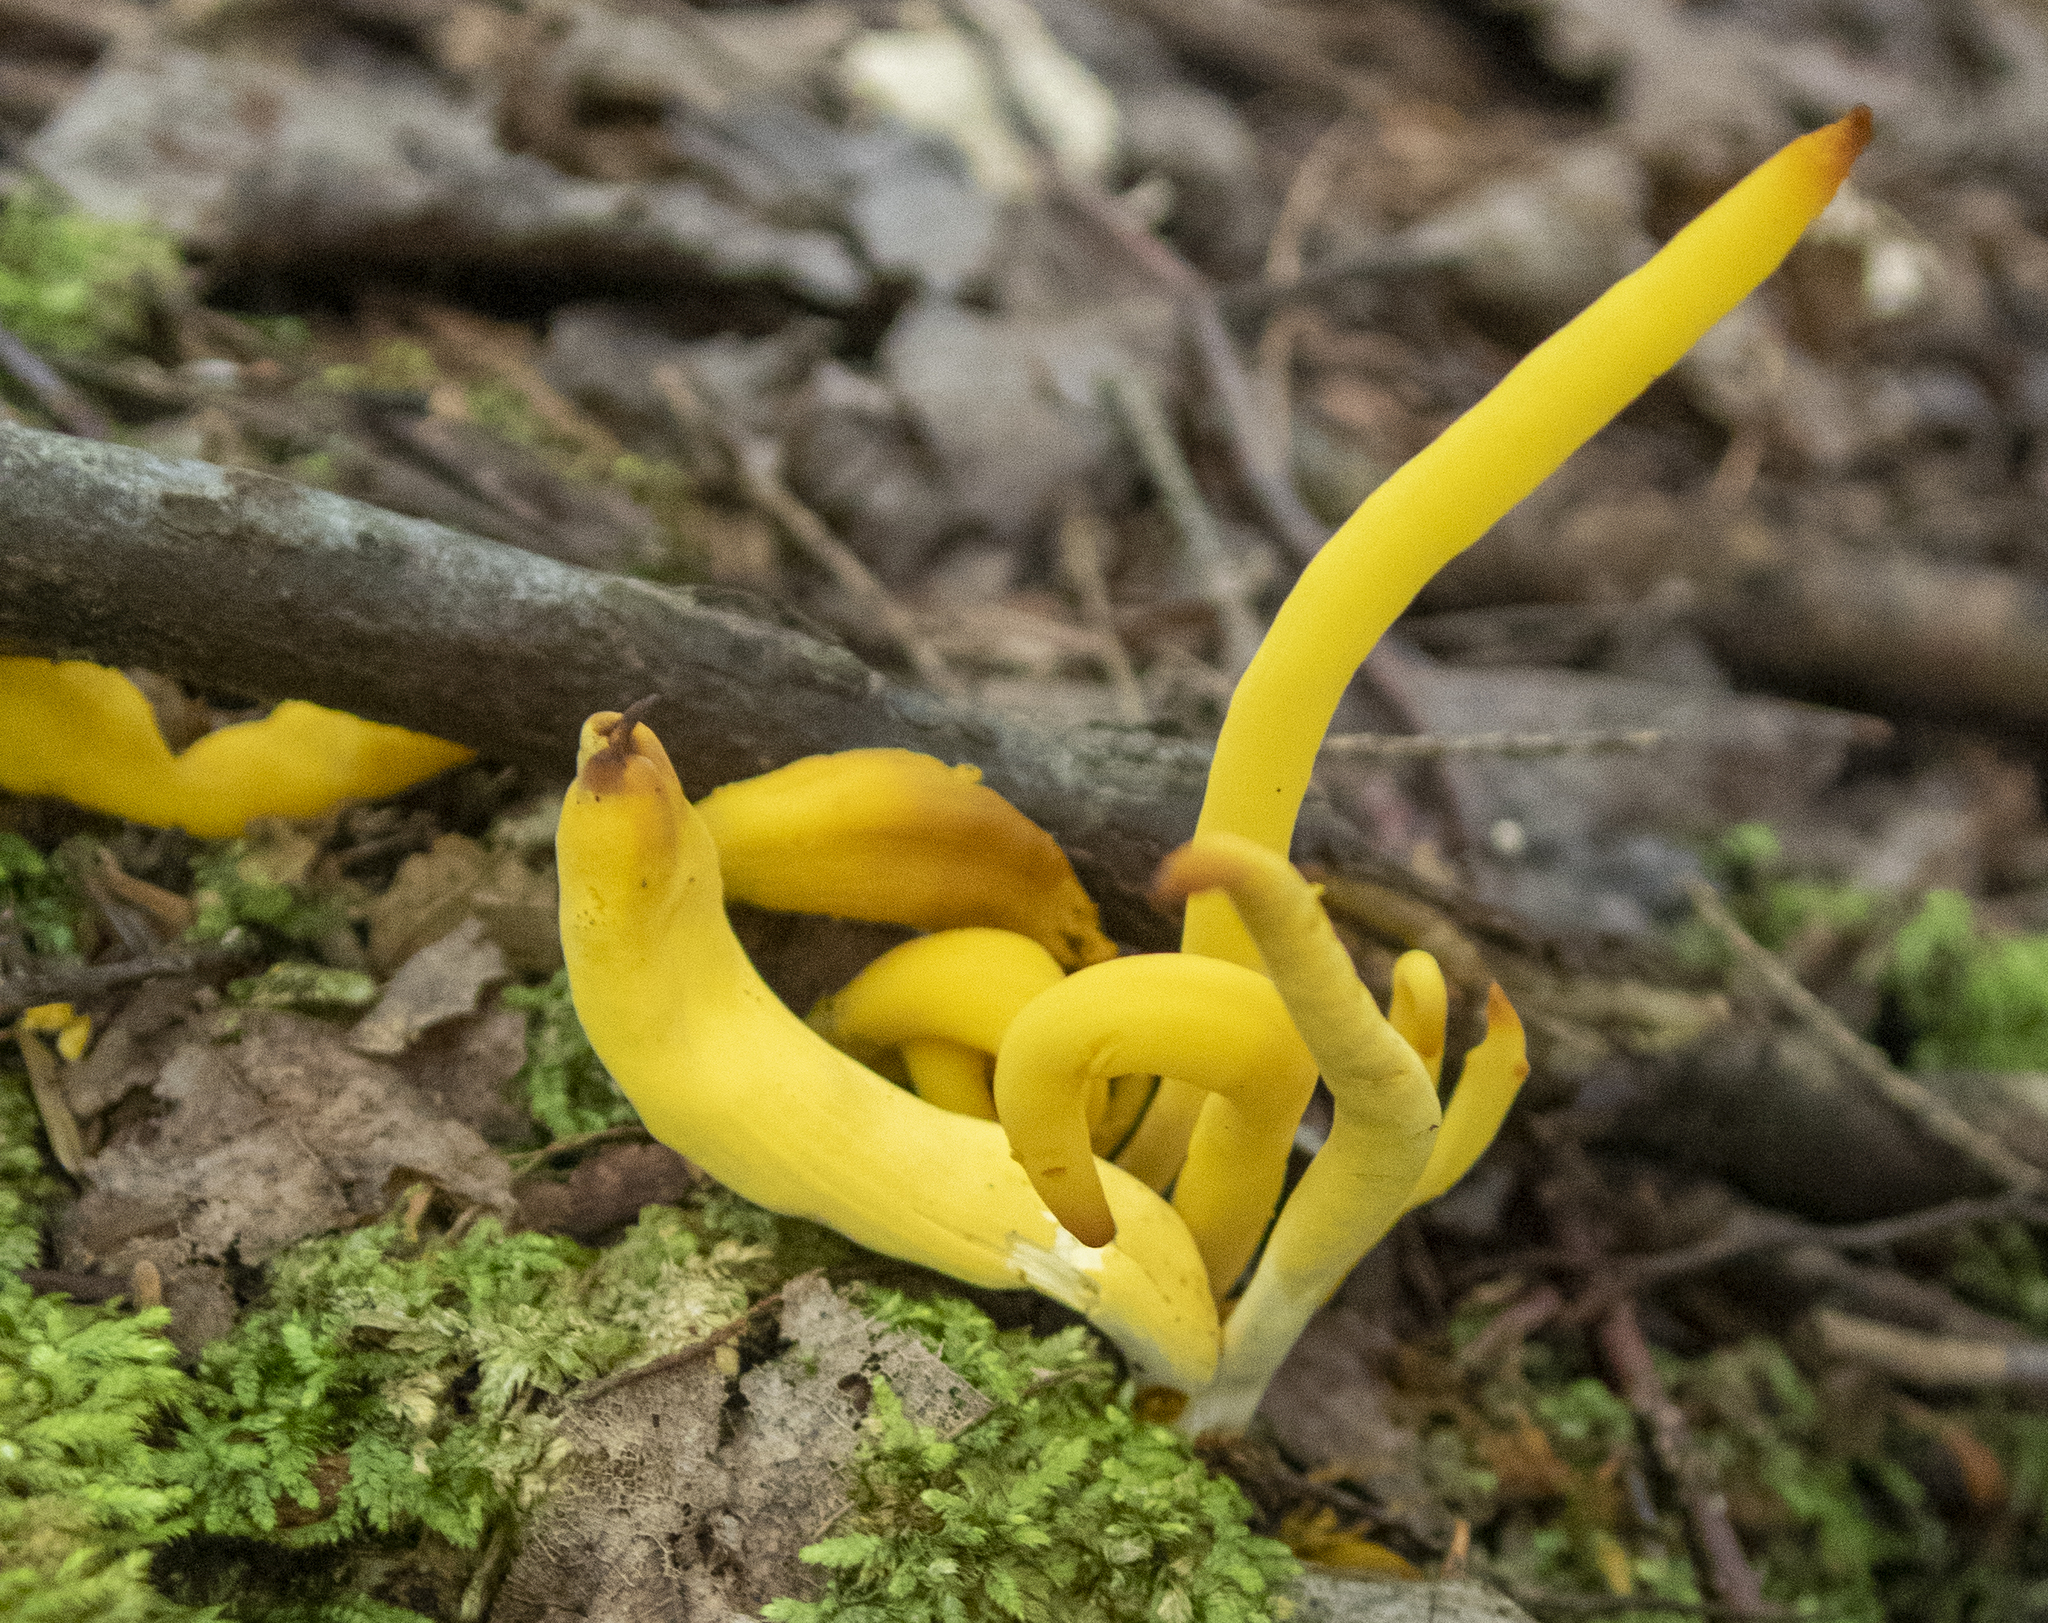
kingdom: Fungi
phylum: Basidiomycota
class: Agaricomycetes
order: Agaricales
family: Clavariaceae
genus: Clavulinopsis
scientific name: Clavulinopsis fusiformis
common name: Golden spindles
